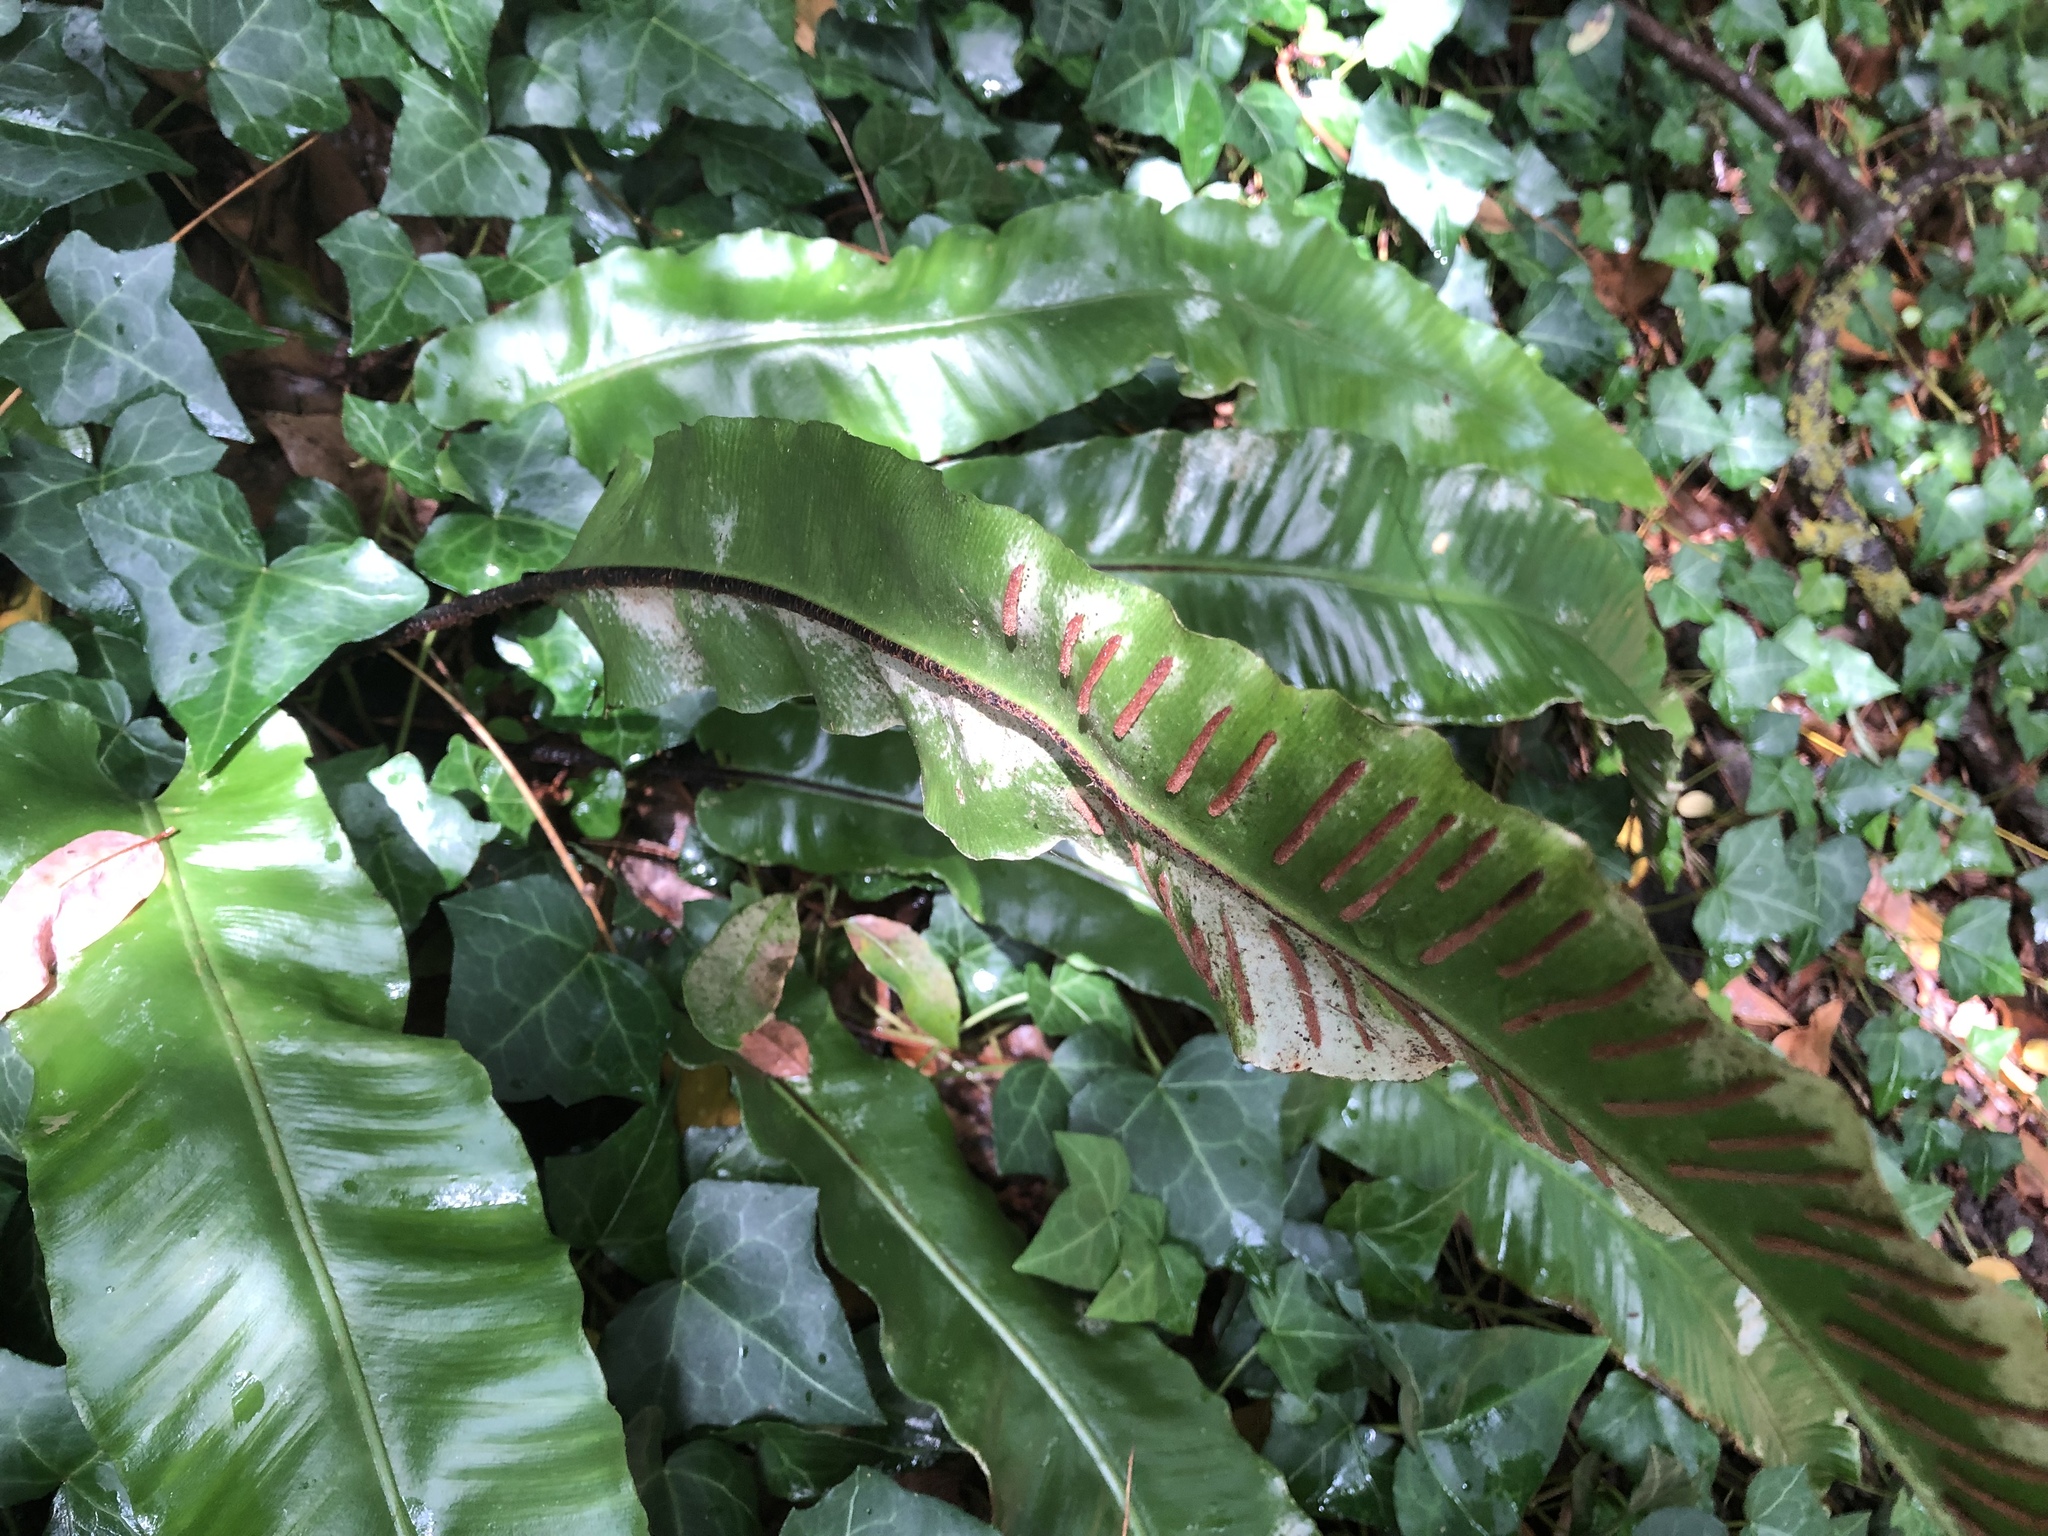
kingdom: Plantae
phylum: Tracheophyta
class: Polypodiopsida
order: Polypodiales
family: Aspleniaceae
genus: Asplenium
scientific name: Asplenium scolopendrium
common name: Hart's-tongue fern
